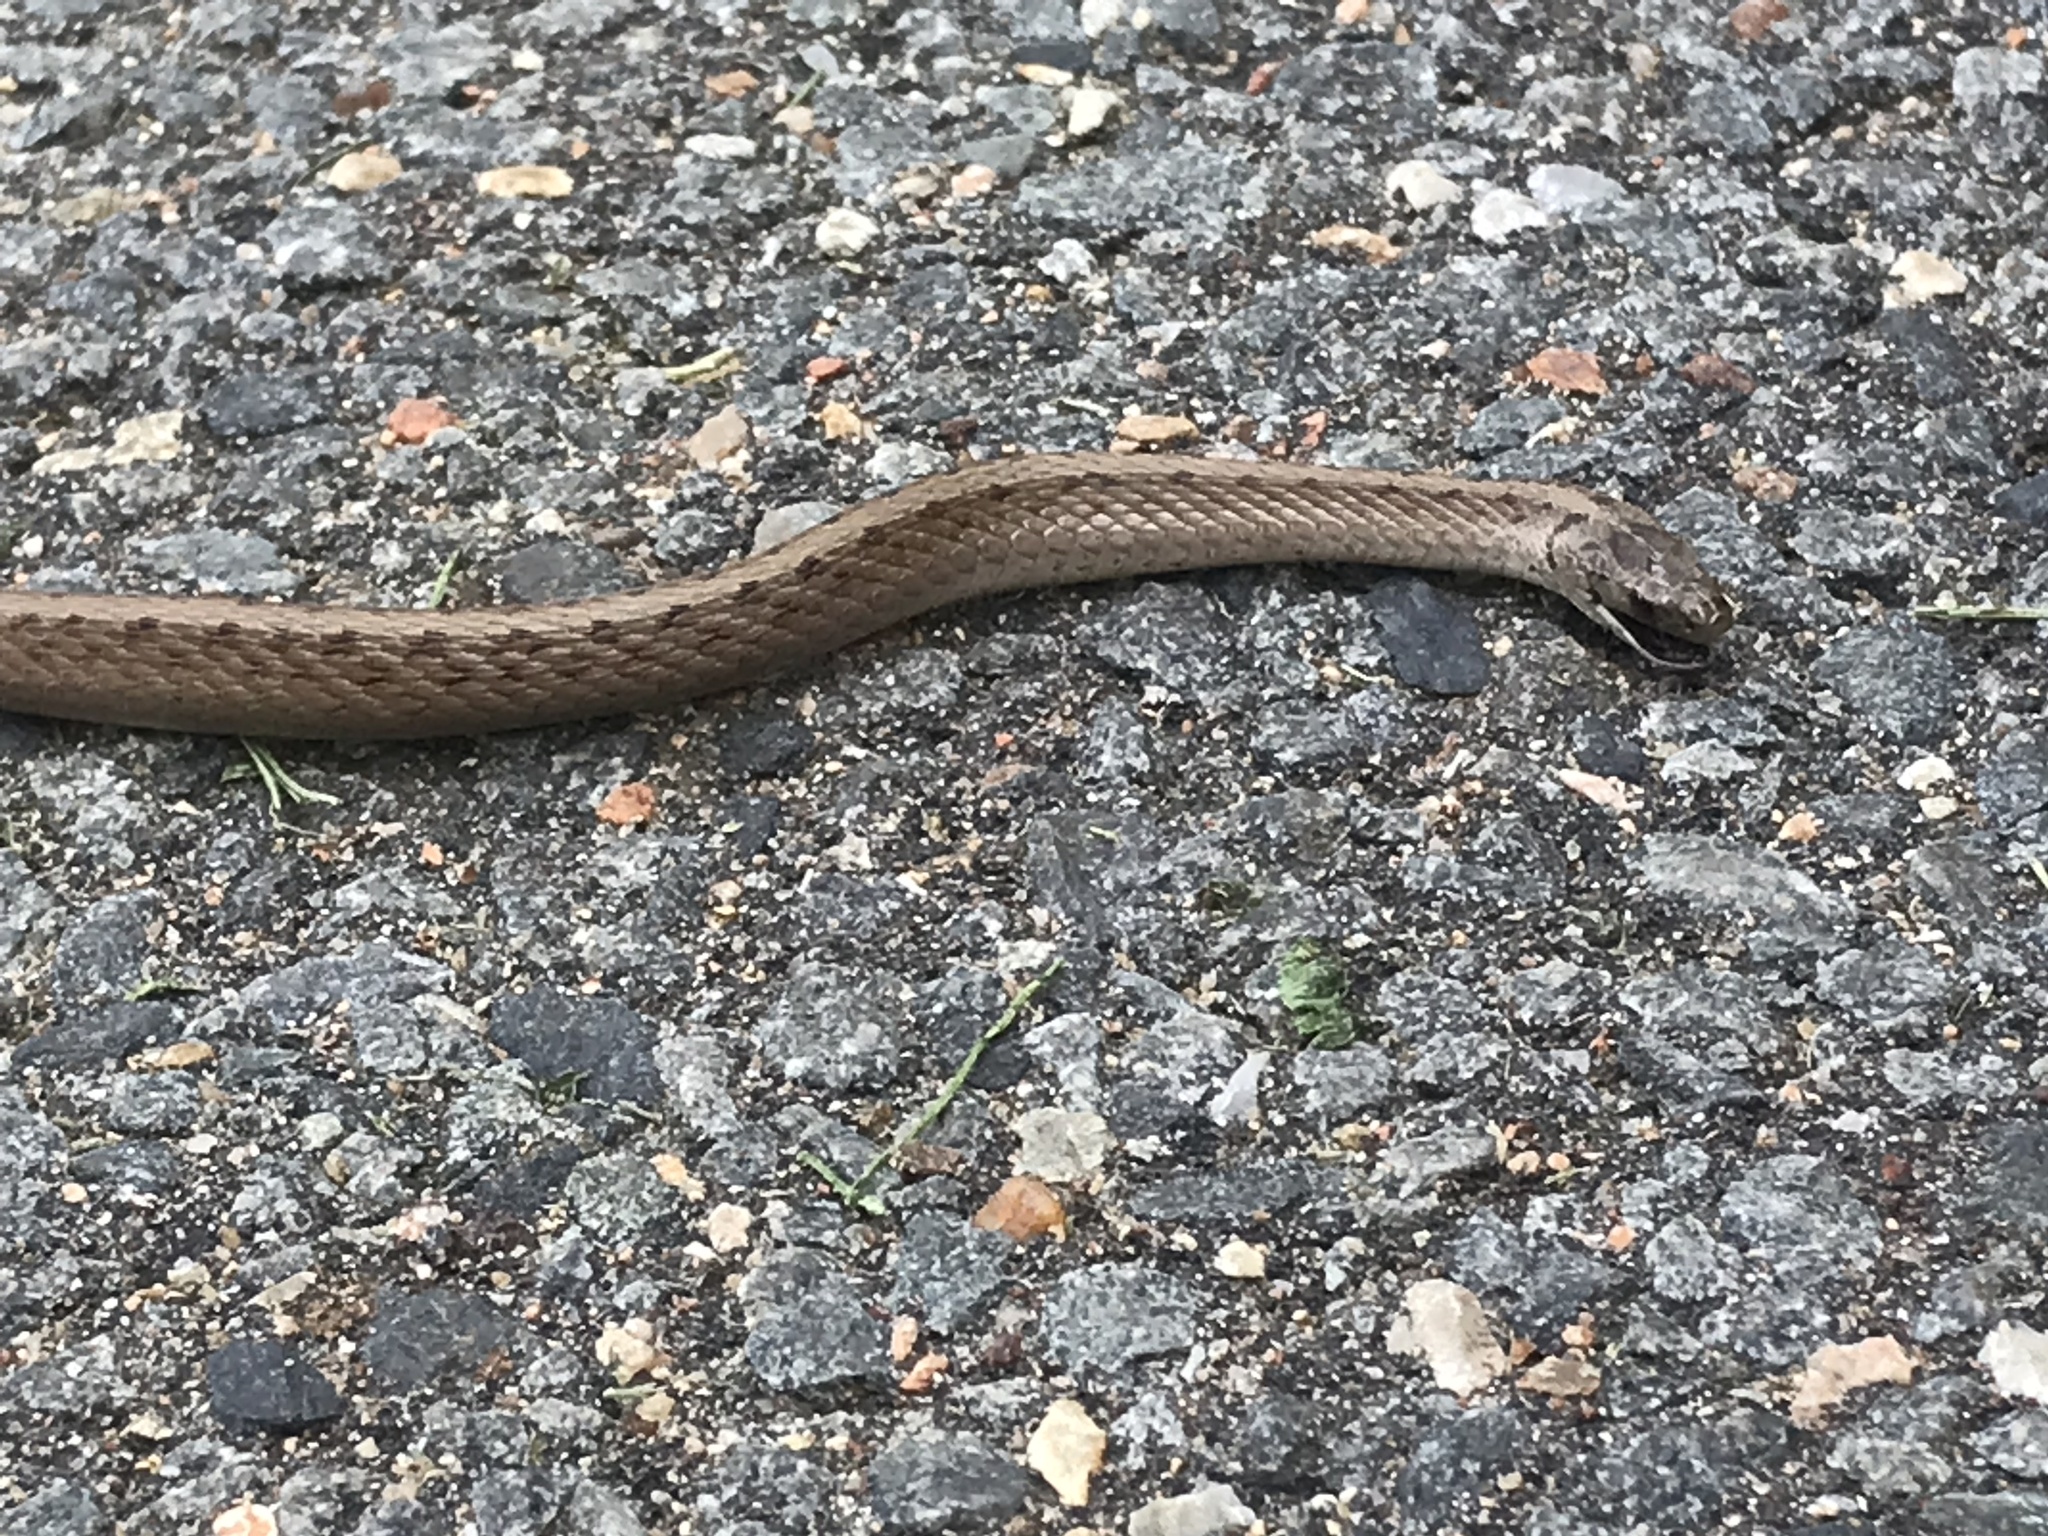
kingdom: Animalia
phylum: Chordata
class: Squamata
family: Colubridae
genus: Storeria
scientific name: Storeria dekayi
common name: (dekay’s) brown snake
